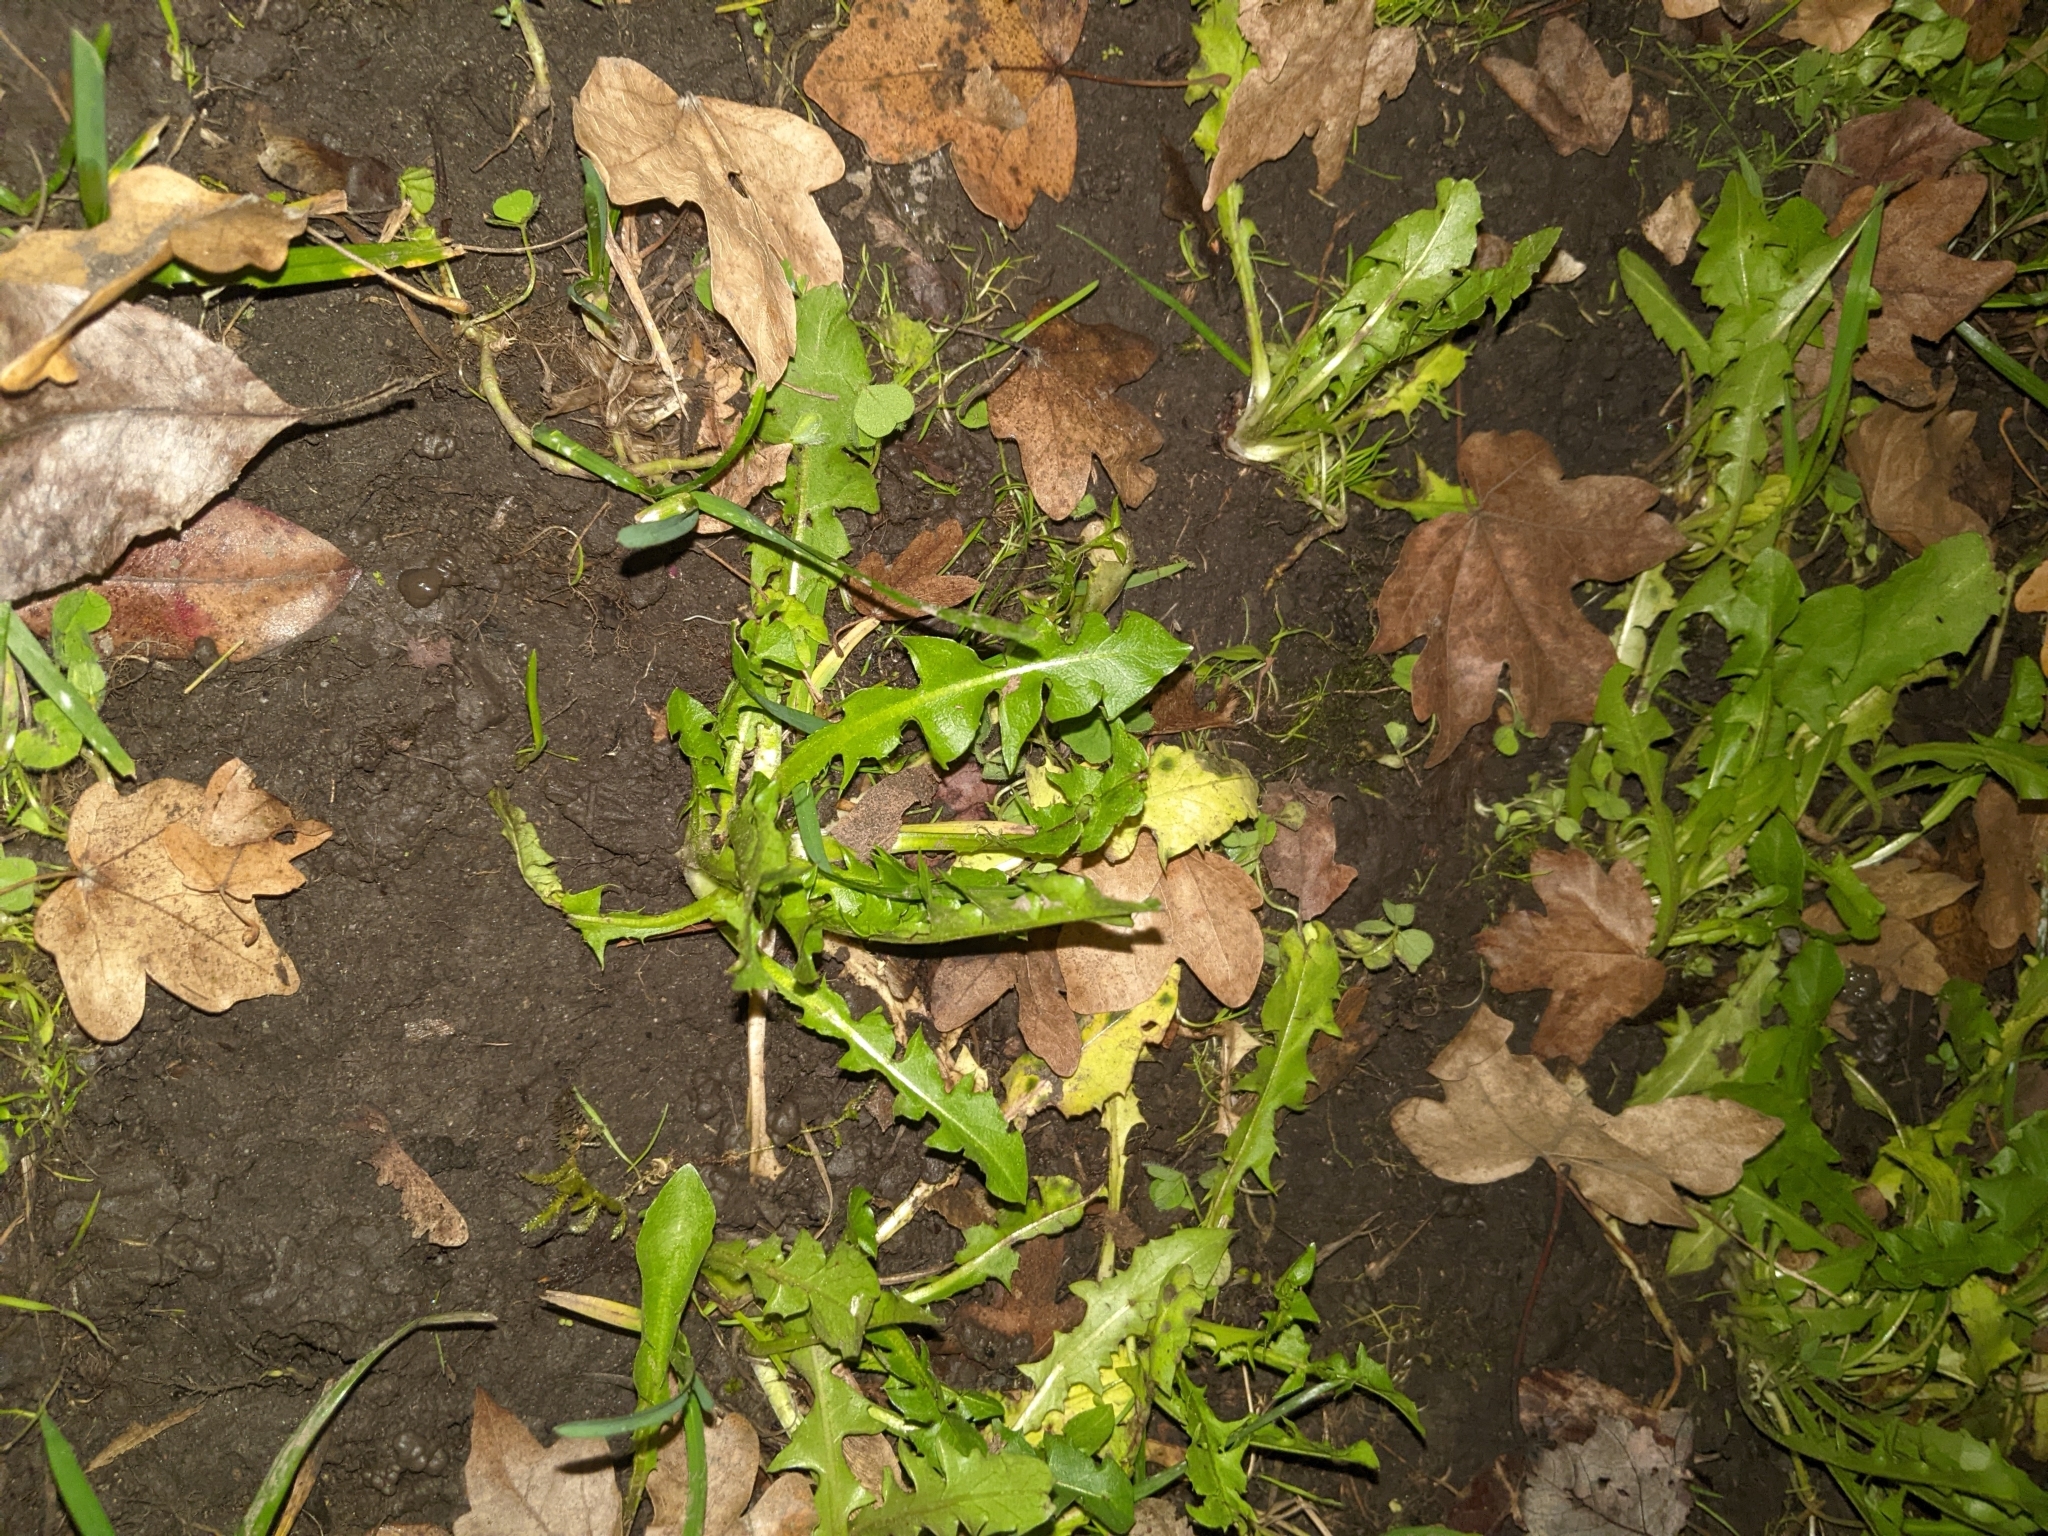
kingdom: Plantae
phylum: Tracheophyta
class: Magnoliopsida
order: Asterales
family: Asteraceae
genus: Taraxacum
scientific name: Taraxacum officinale
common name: Common dandelion
